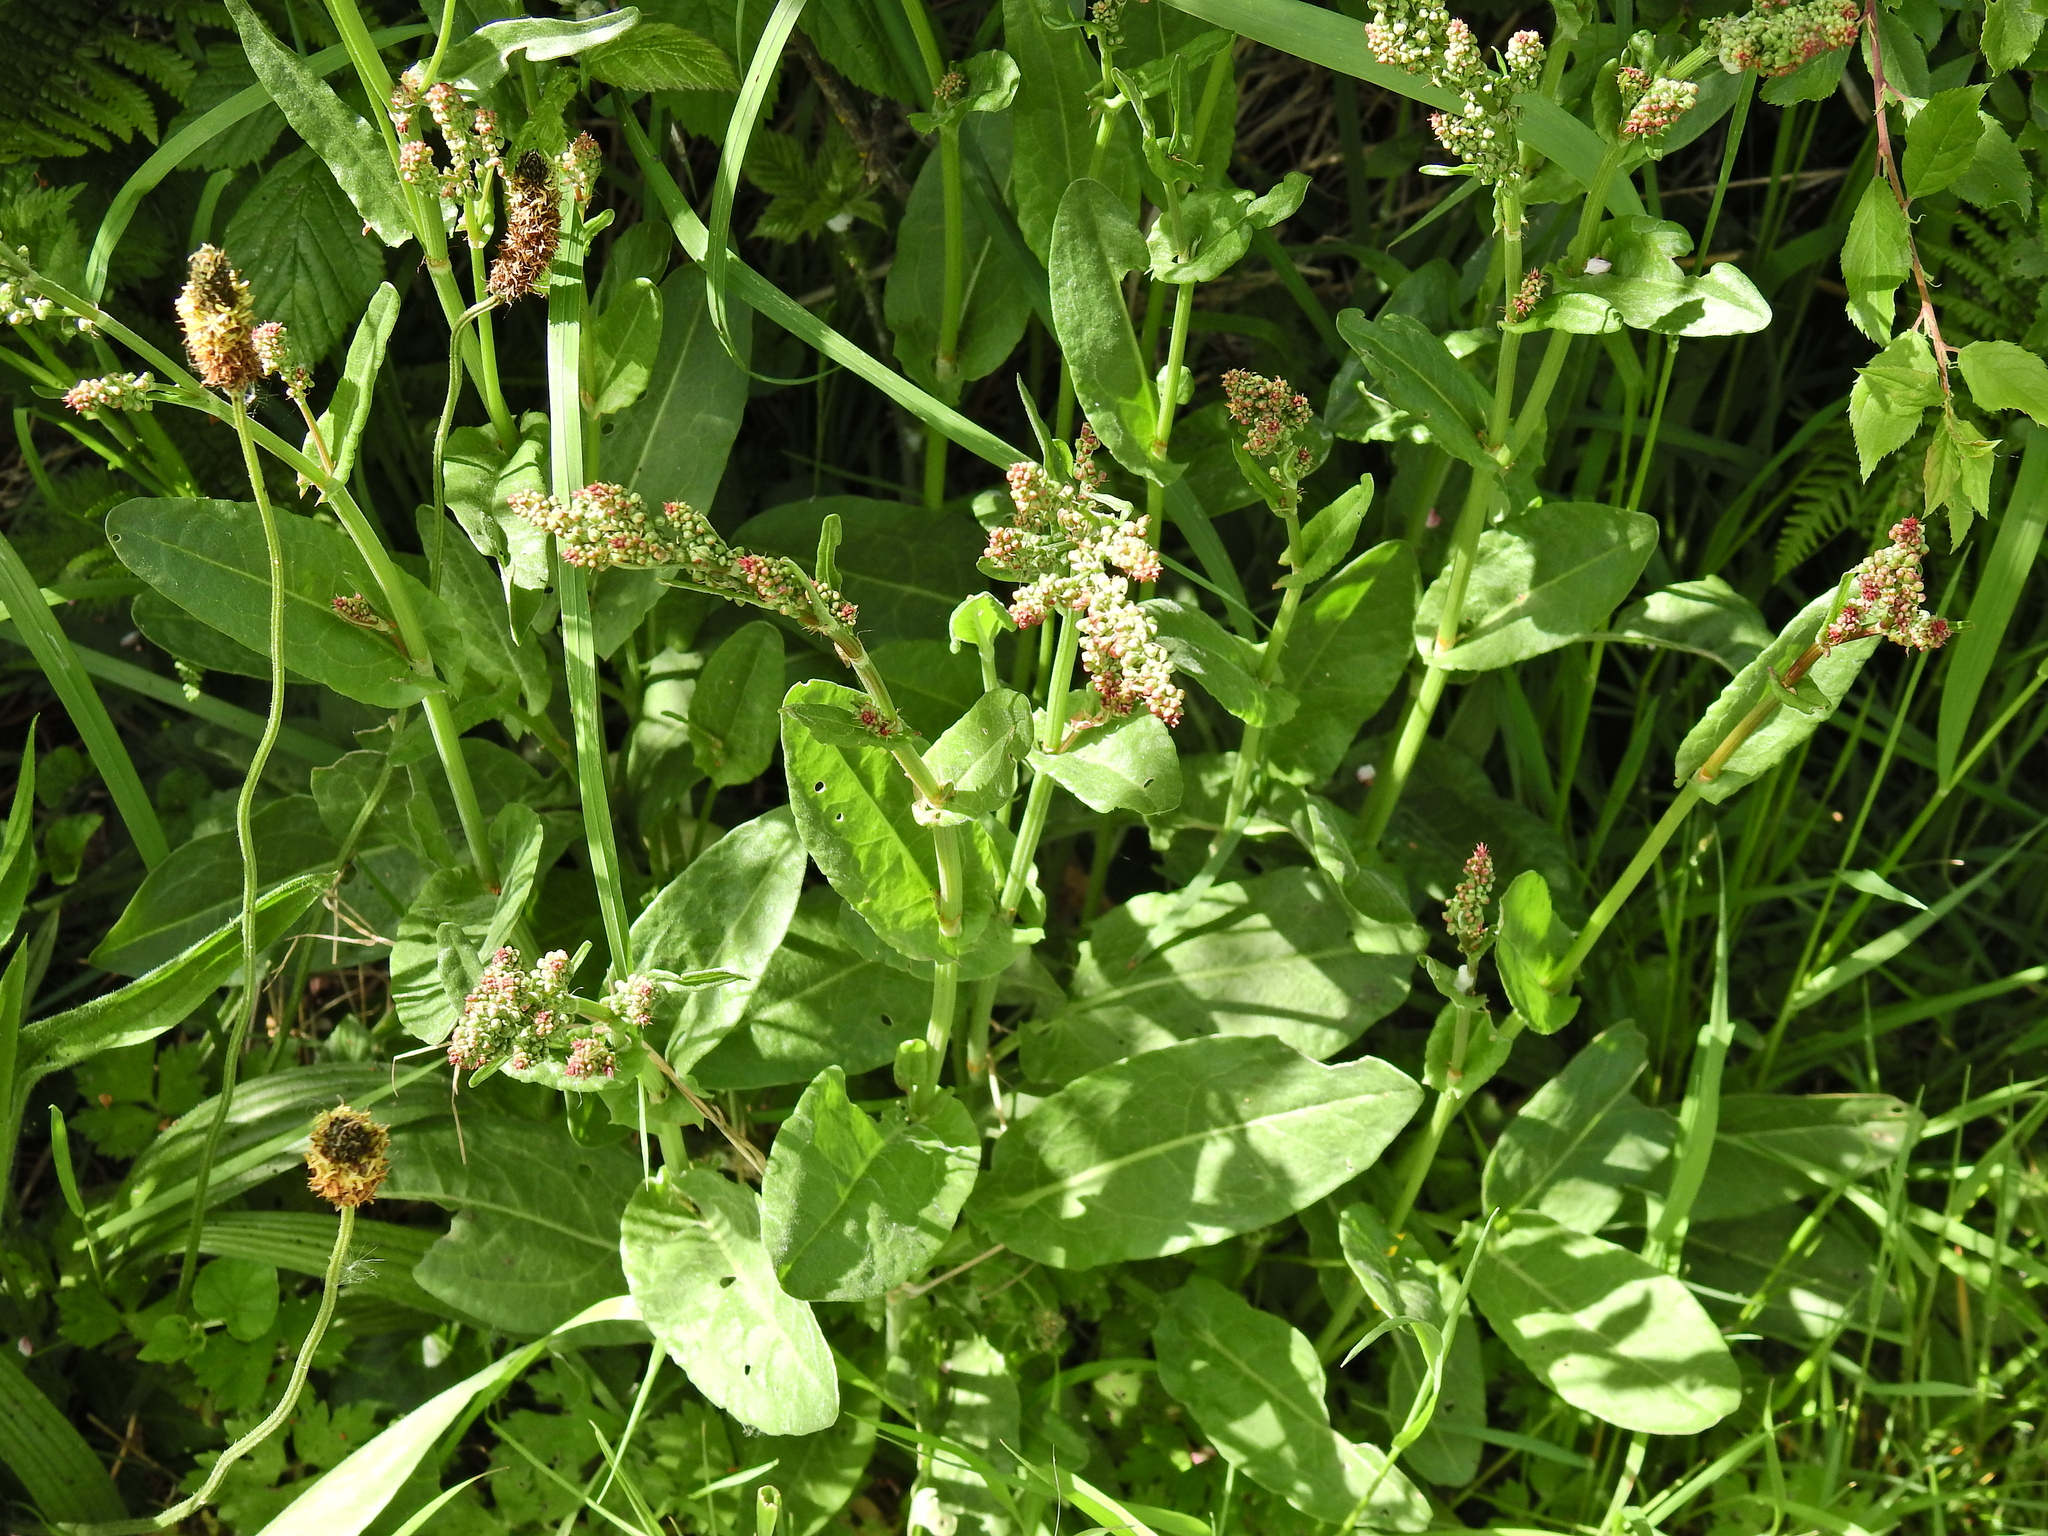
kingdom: Plantae
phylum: Tracheophyta
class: Magnoliopsida
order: Caryophyllales
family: Polygonaceae
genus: Rumex
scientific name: Rumex acetosa
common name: Garden sorrel
